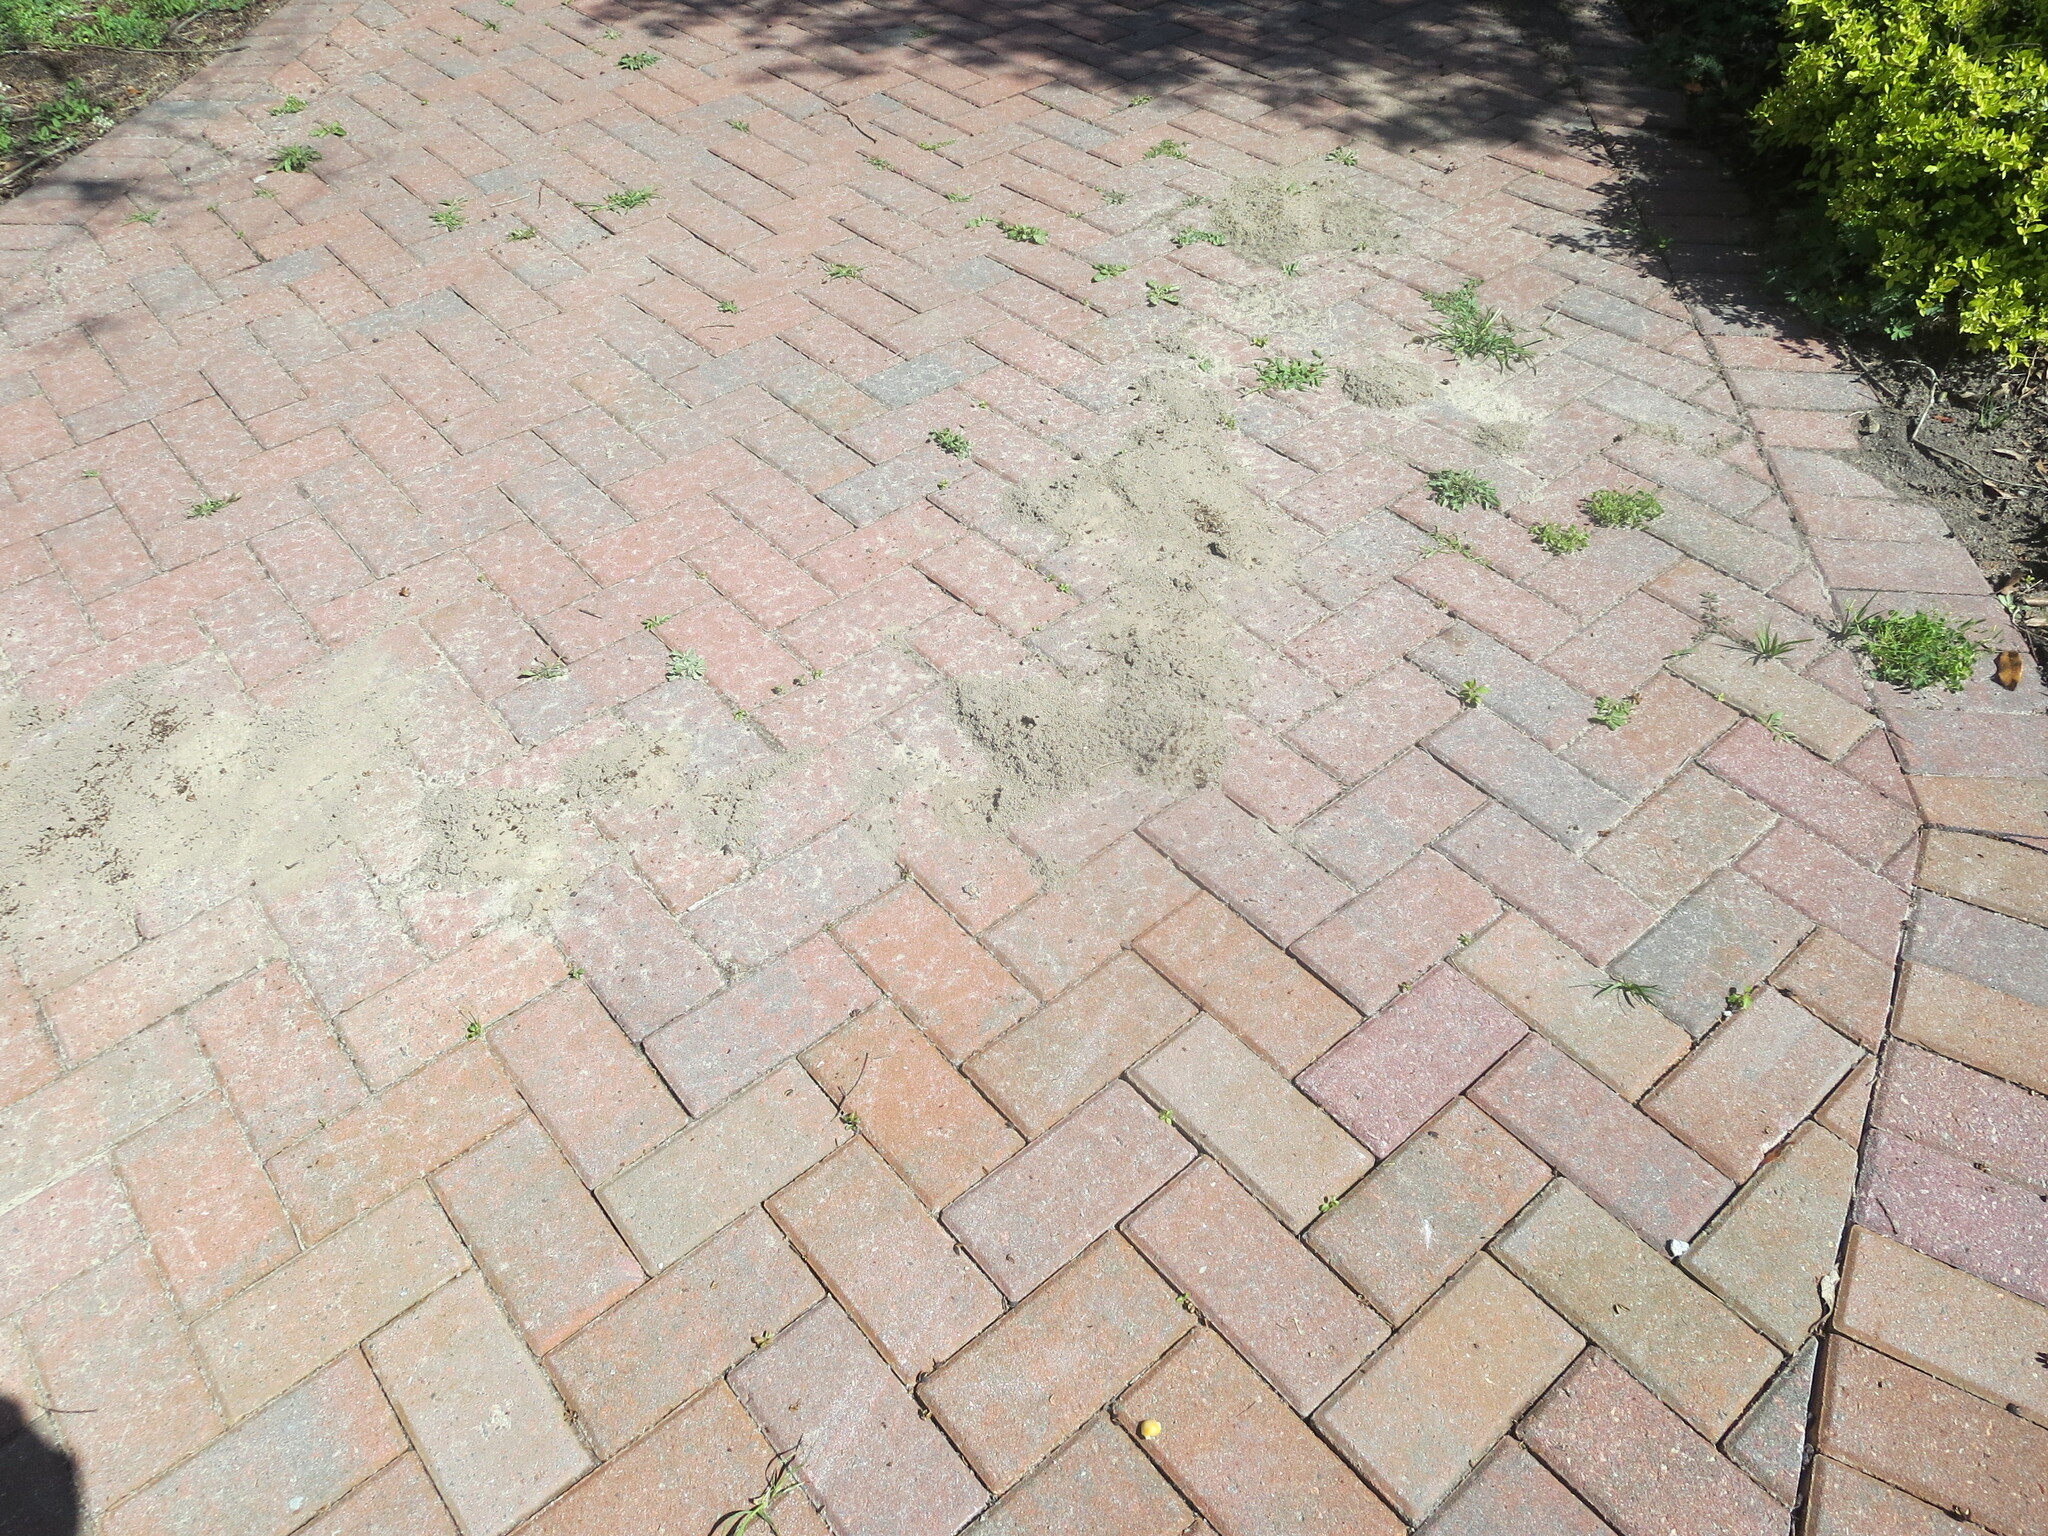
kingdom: Animalia
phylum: Arthropoda
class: Insecta
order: Hymenoptera
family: Formicidae
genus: Solenopsis
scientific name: Solenopsis invicta
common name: Red imported fire ant
